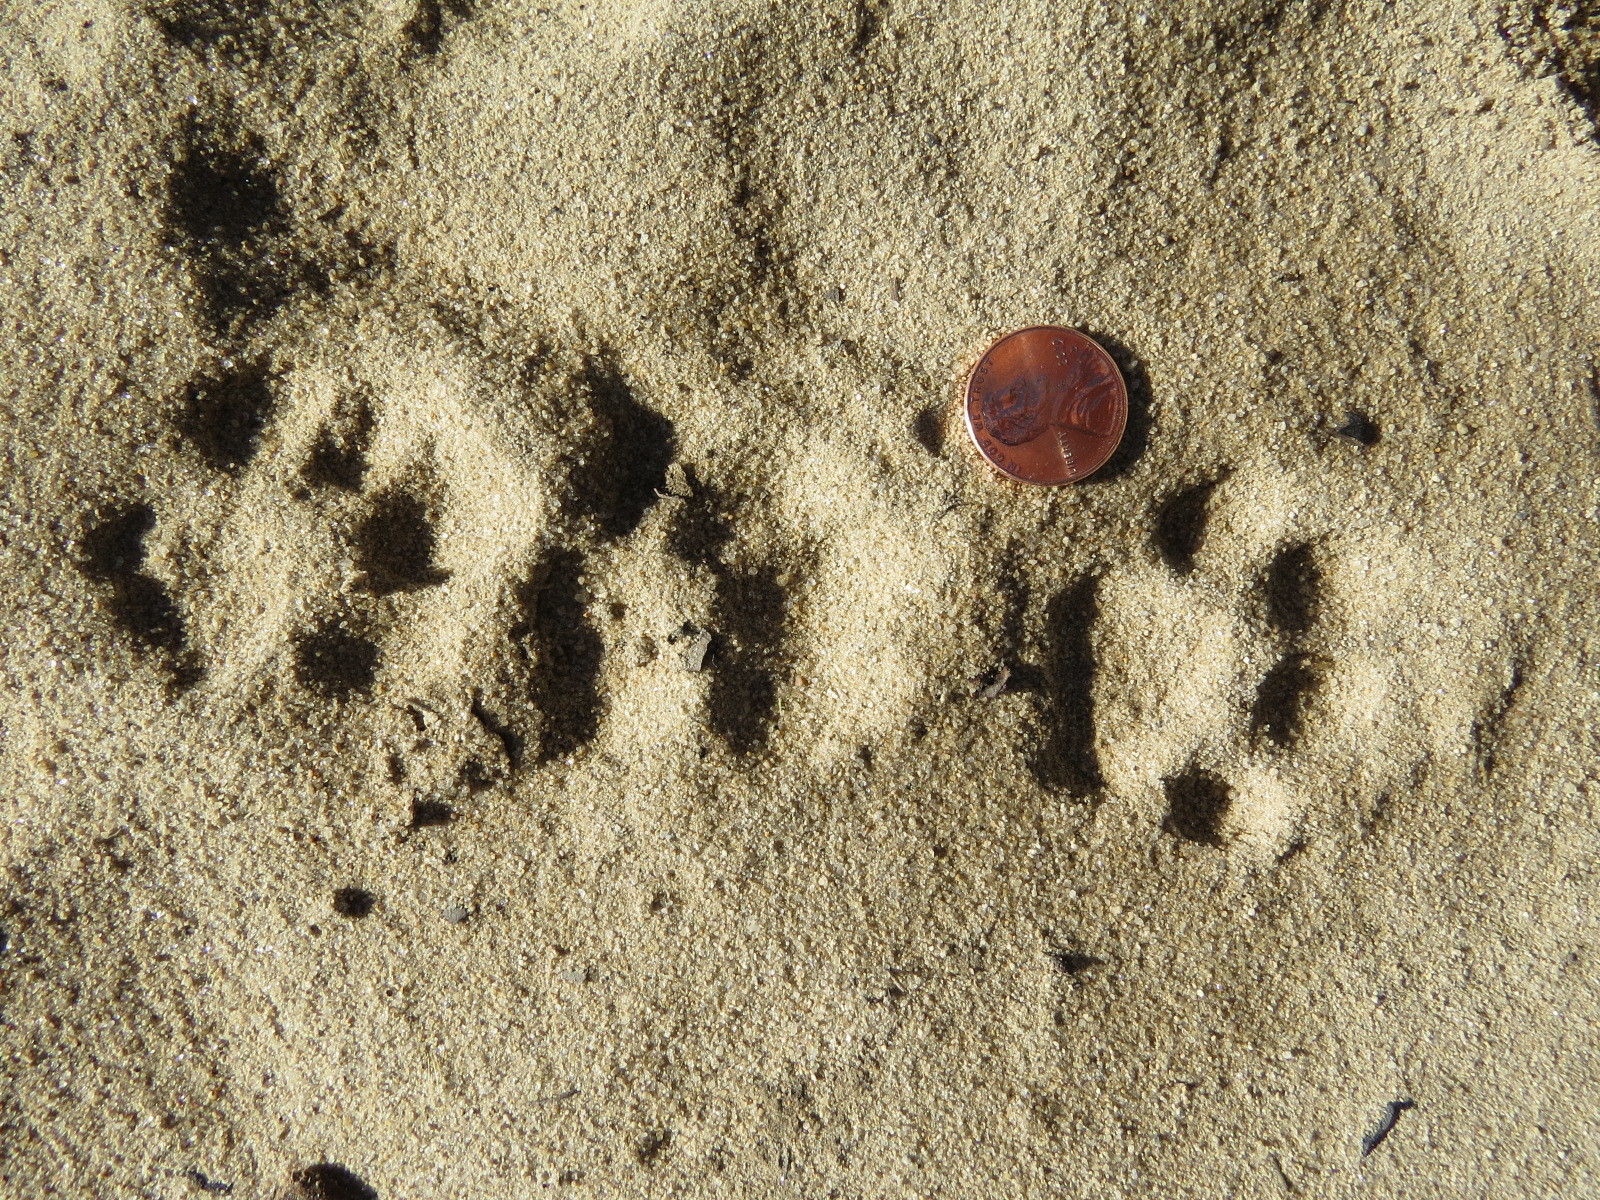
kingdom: Animalia
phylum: Chordata
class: Mammalia
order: Carnivora
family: Felidae
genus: Lynx
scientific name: Lynx rufus
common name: Bobcat
